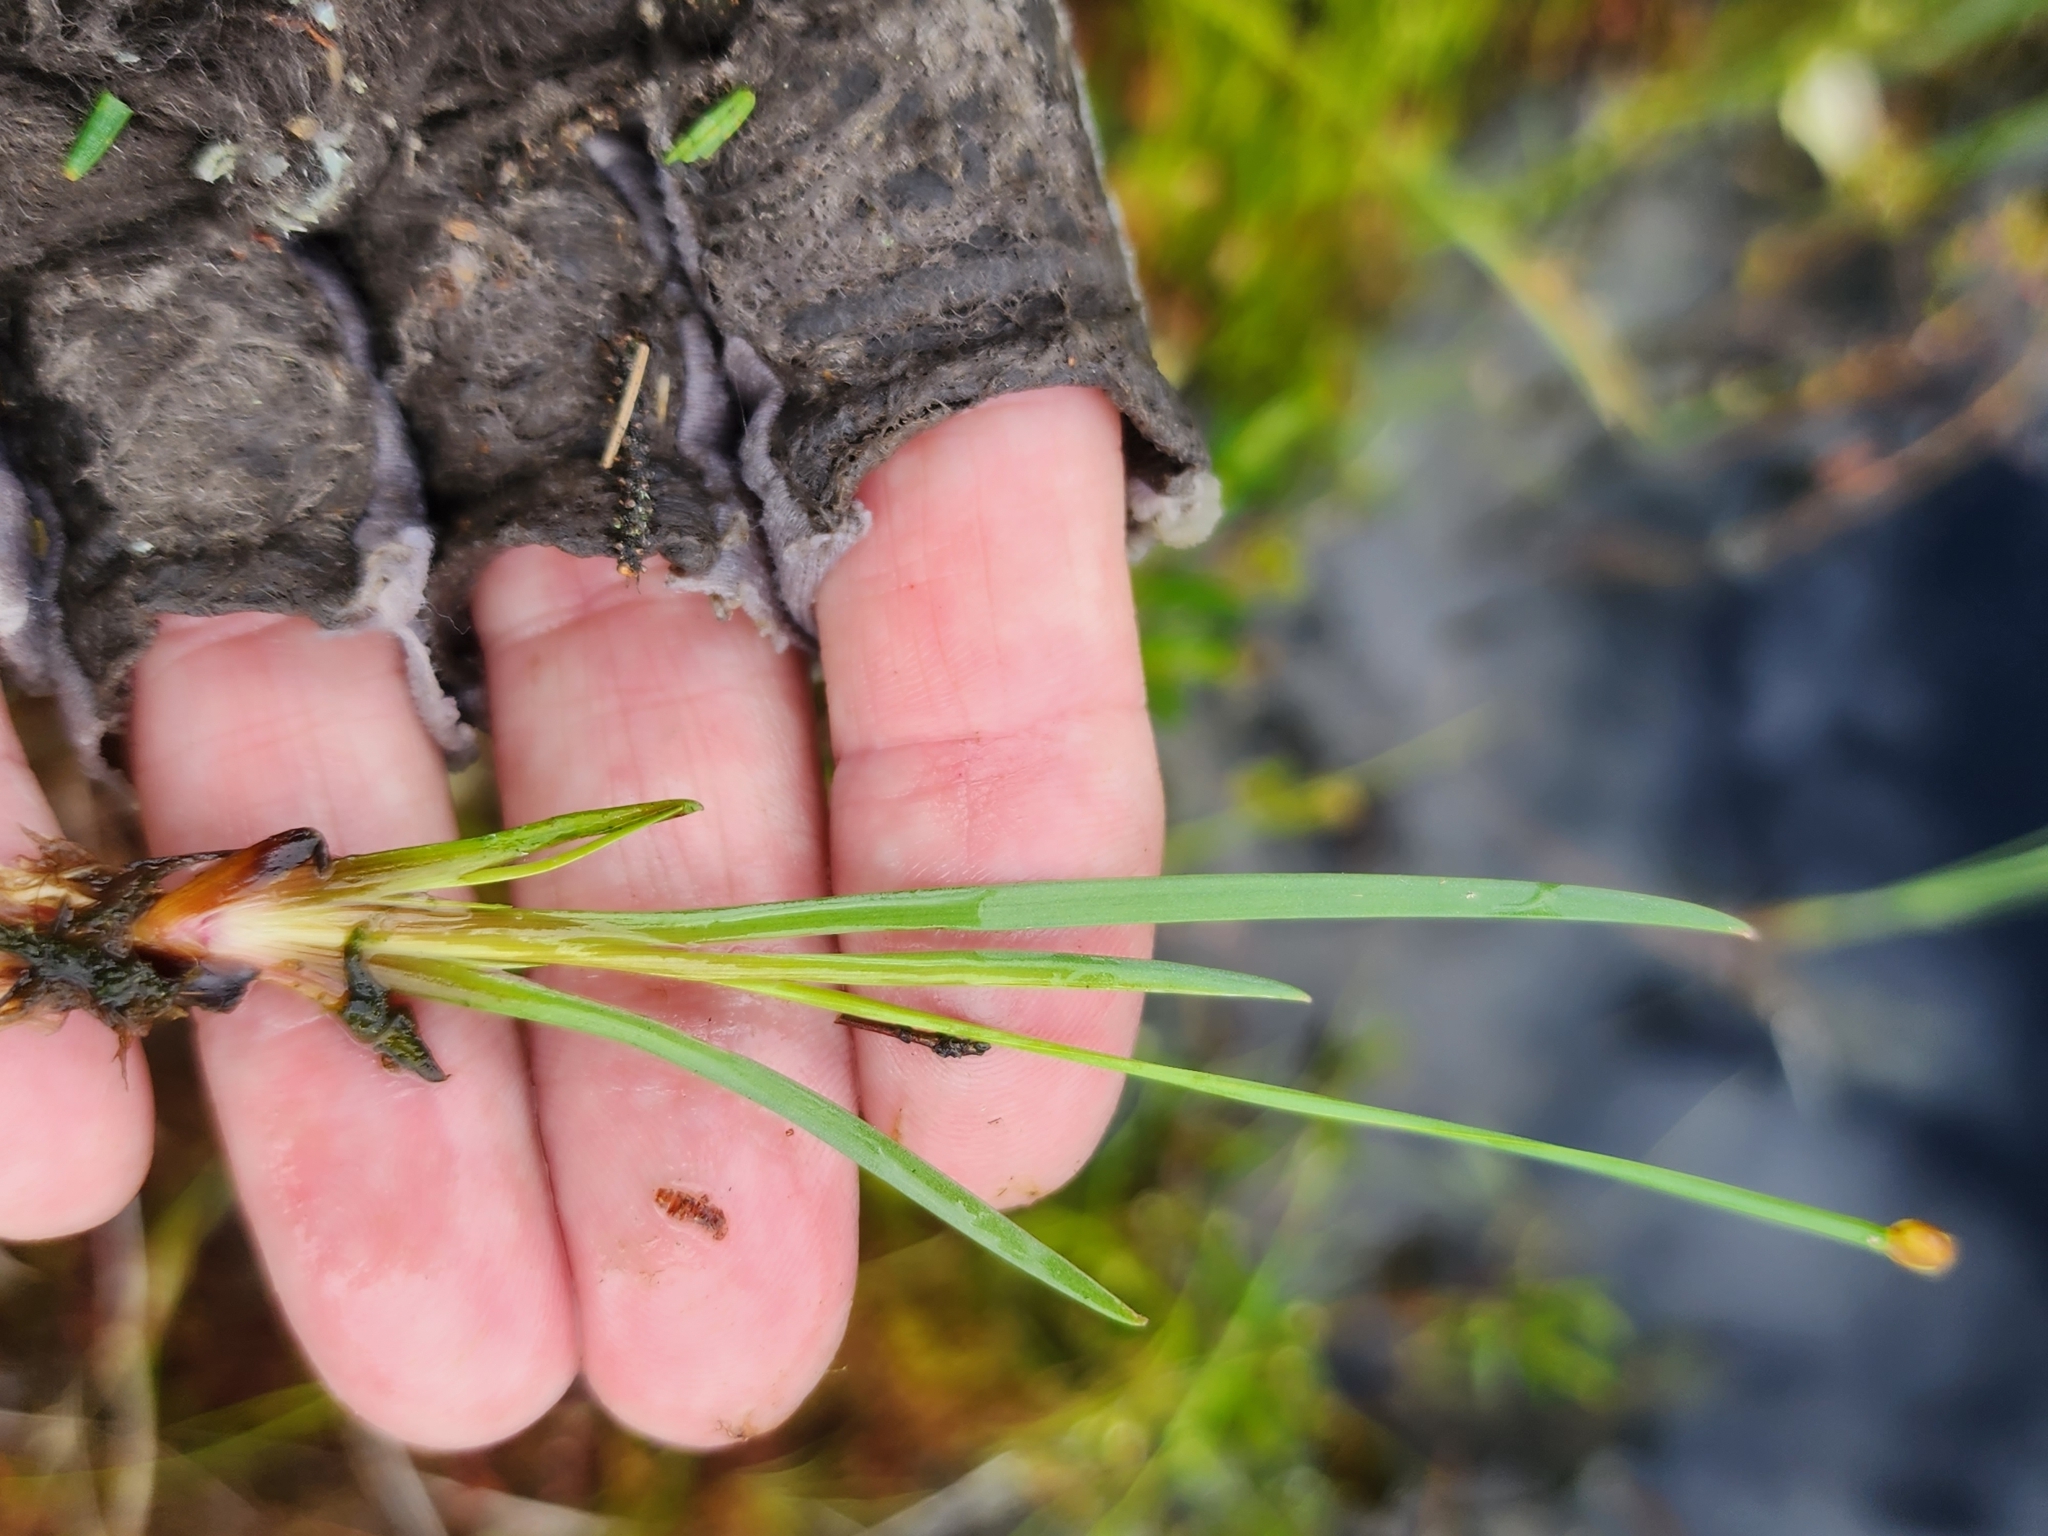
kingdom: Plantae
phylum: Tracheophyta
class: Liliopsida
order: Poales
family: Xyridaceae
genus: Xyris
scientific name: Xyris montana
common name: Northern yellow-eyed-grass
